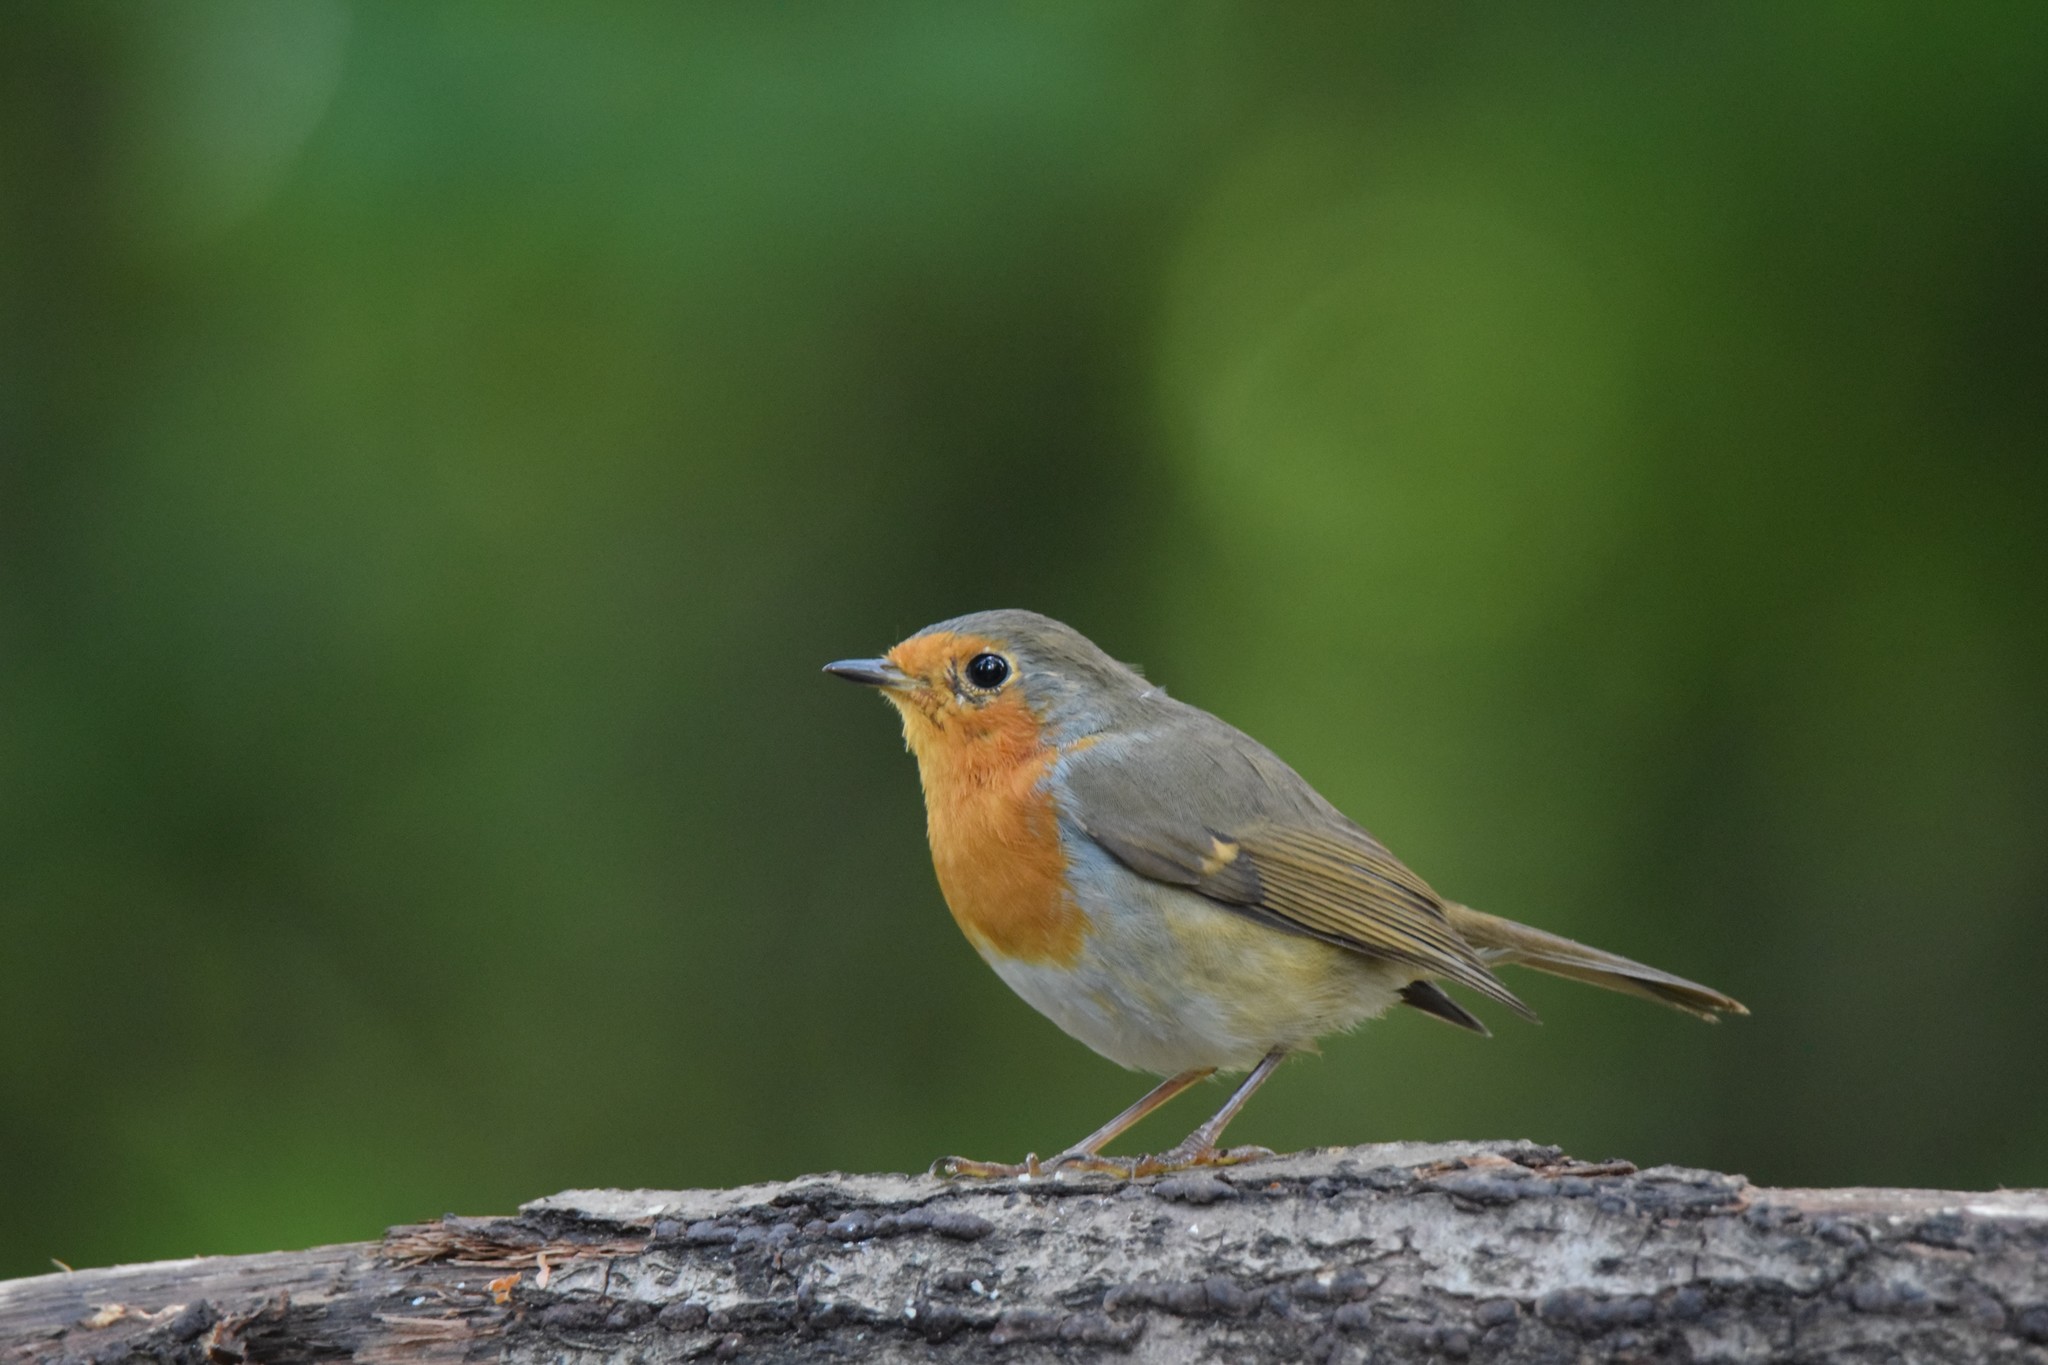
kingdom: Animalia
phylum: Chordata
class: Aves
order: Passeriformes
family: Muscicapidae
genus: Erithacus
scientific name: Erithacus rubecula
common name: European robin
